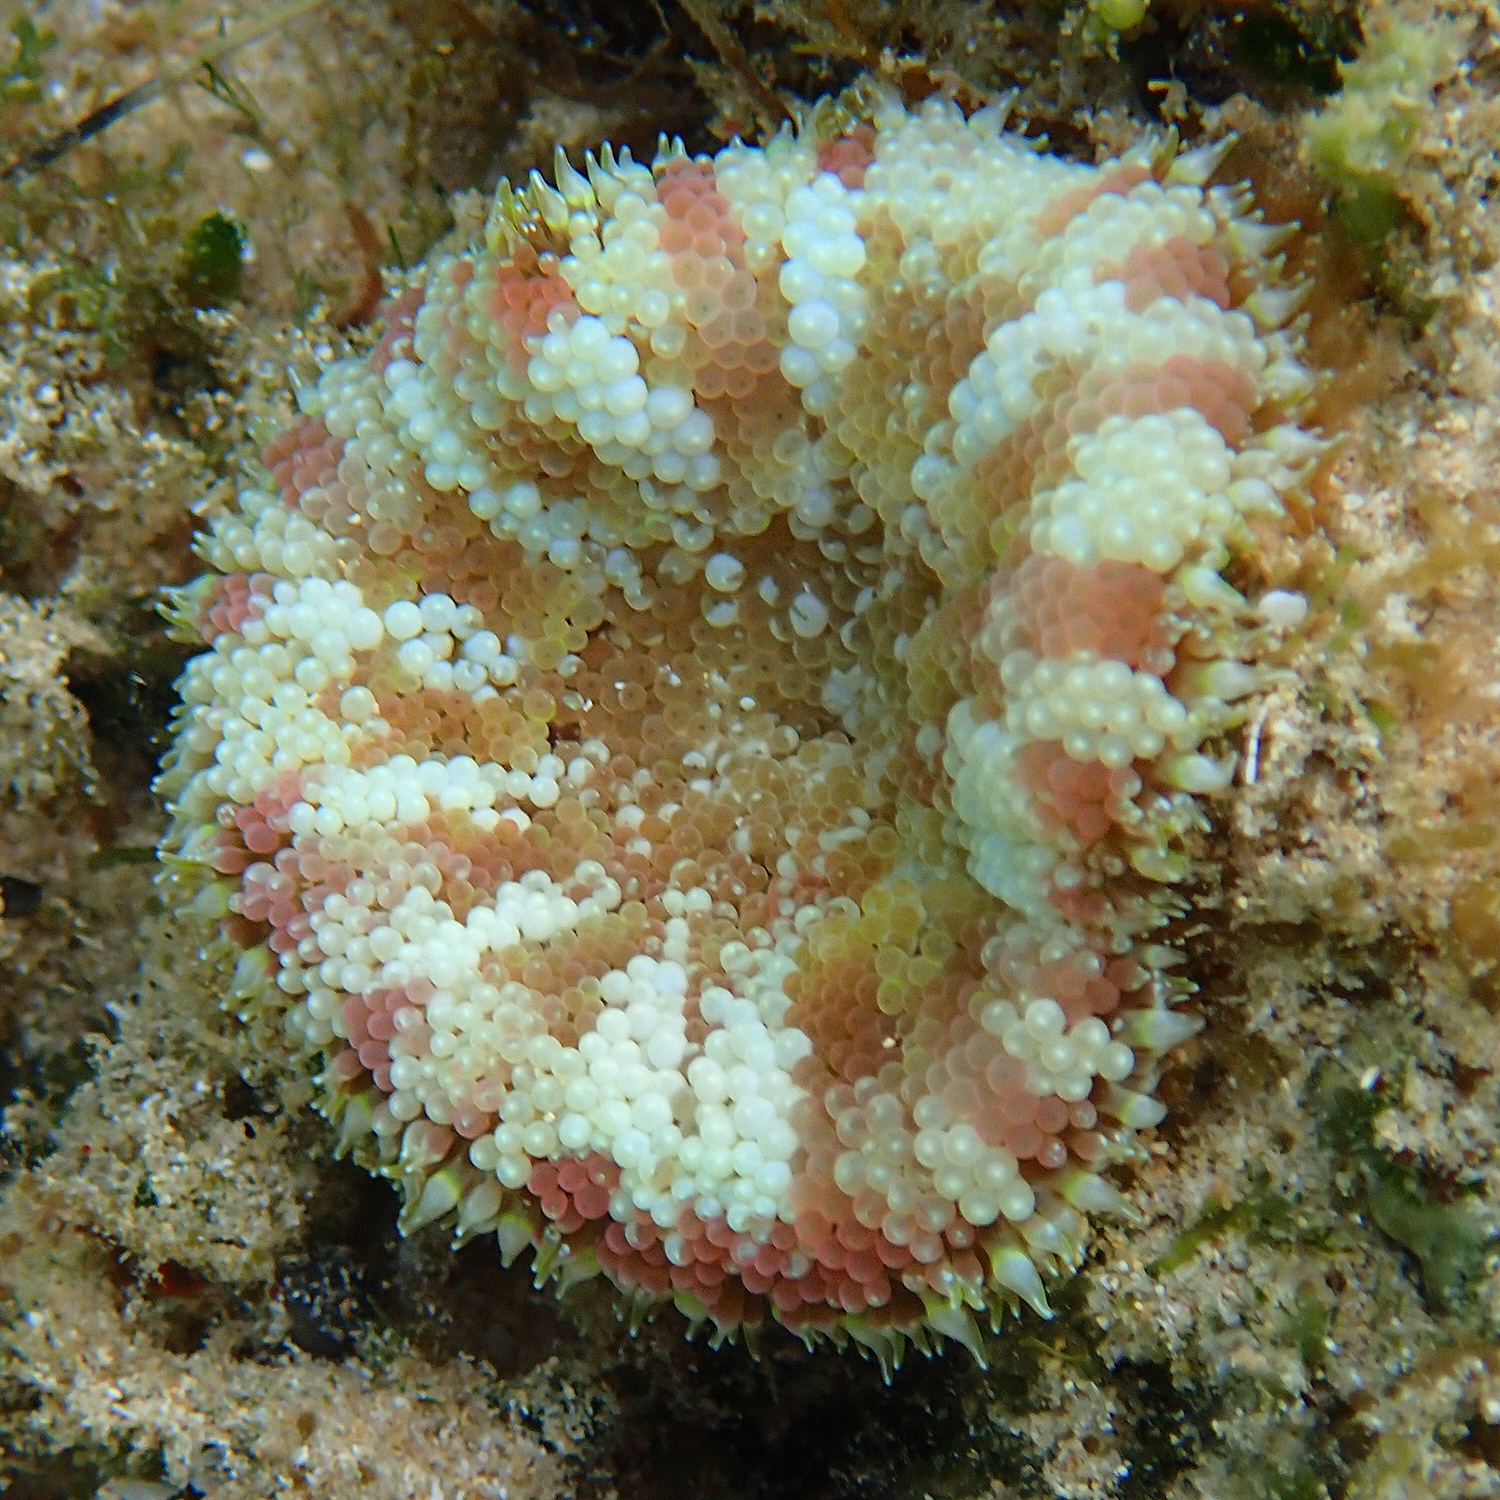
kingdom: Animalia
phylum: Cnidaria
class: Anthozoa
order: Actiniaria
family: Stichodactylidae
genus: Stichodactyla
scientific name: Stichodactyla tapetum
